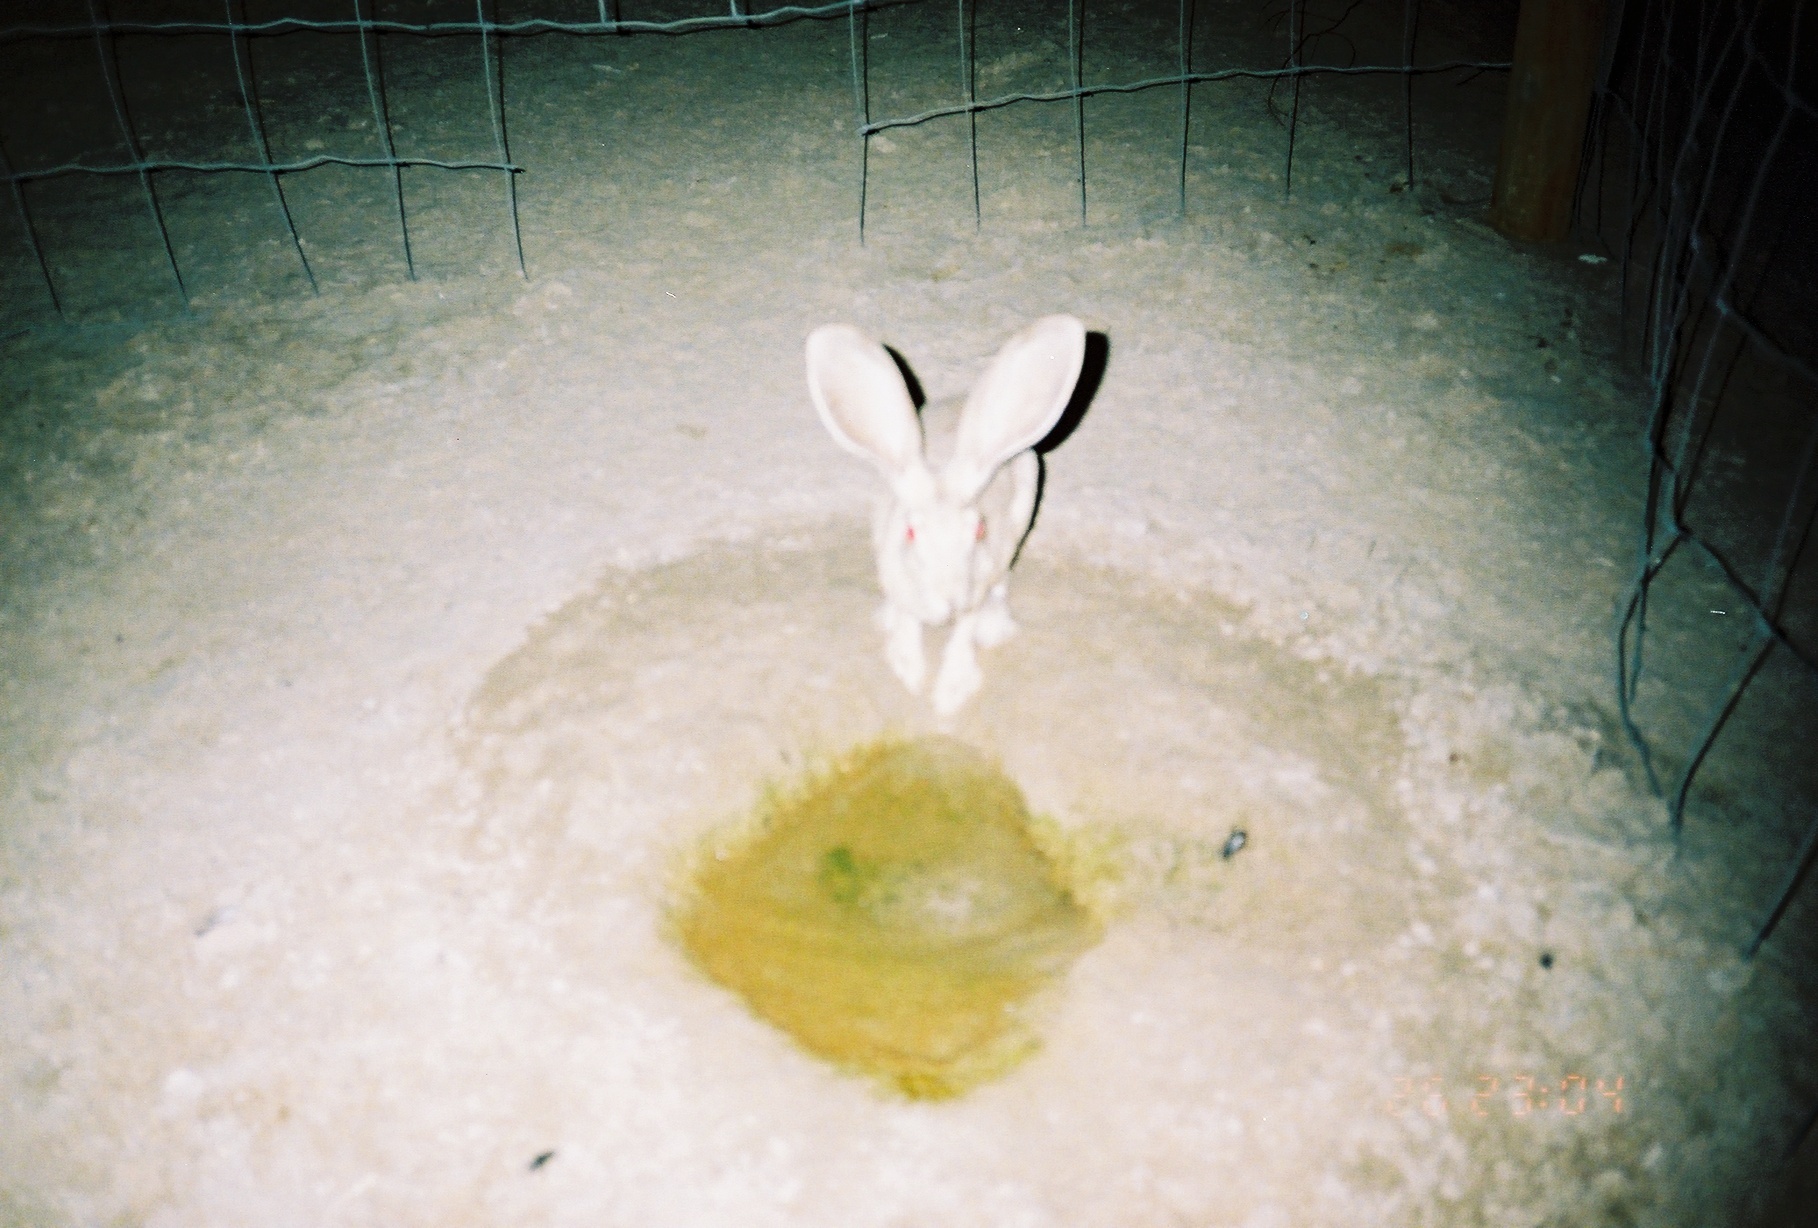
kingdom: Animalia
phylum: Chordata
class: Mammalia
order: Lagomorpha
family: Leporidae
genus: Lepus
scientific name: Lepus californicus
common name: Black-tailed jackrabbit
